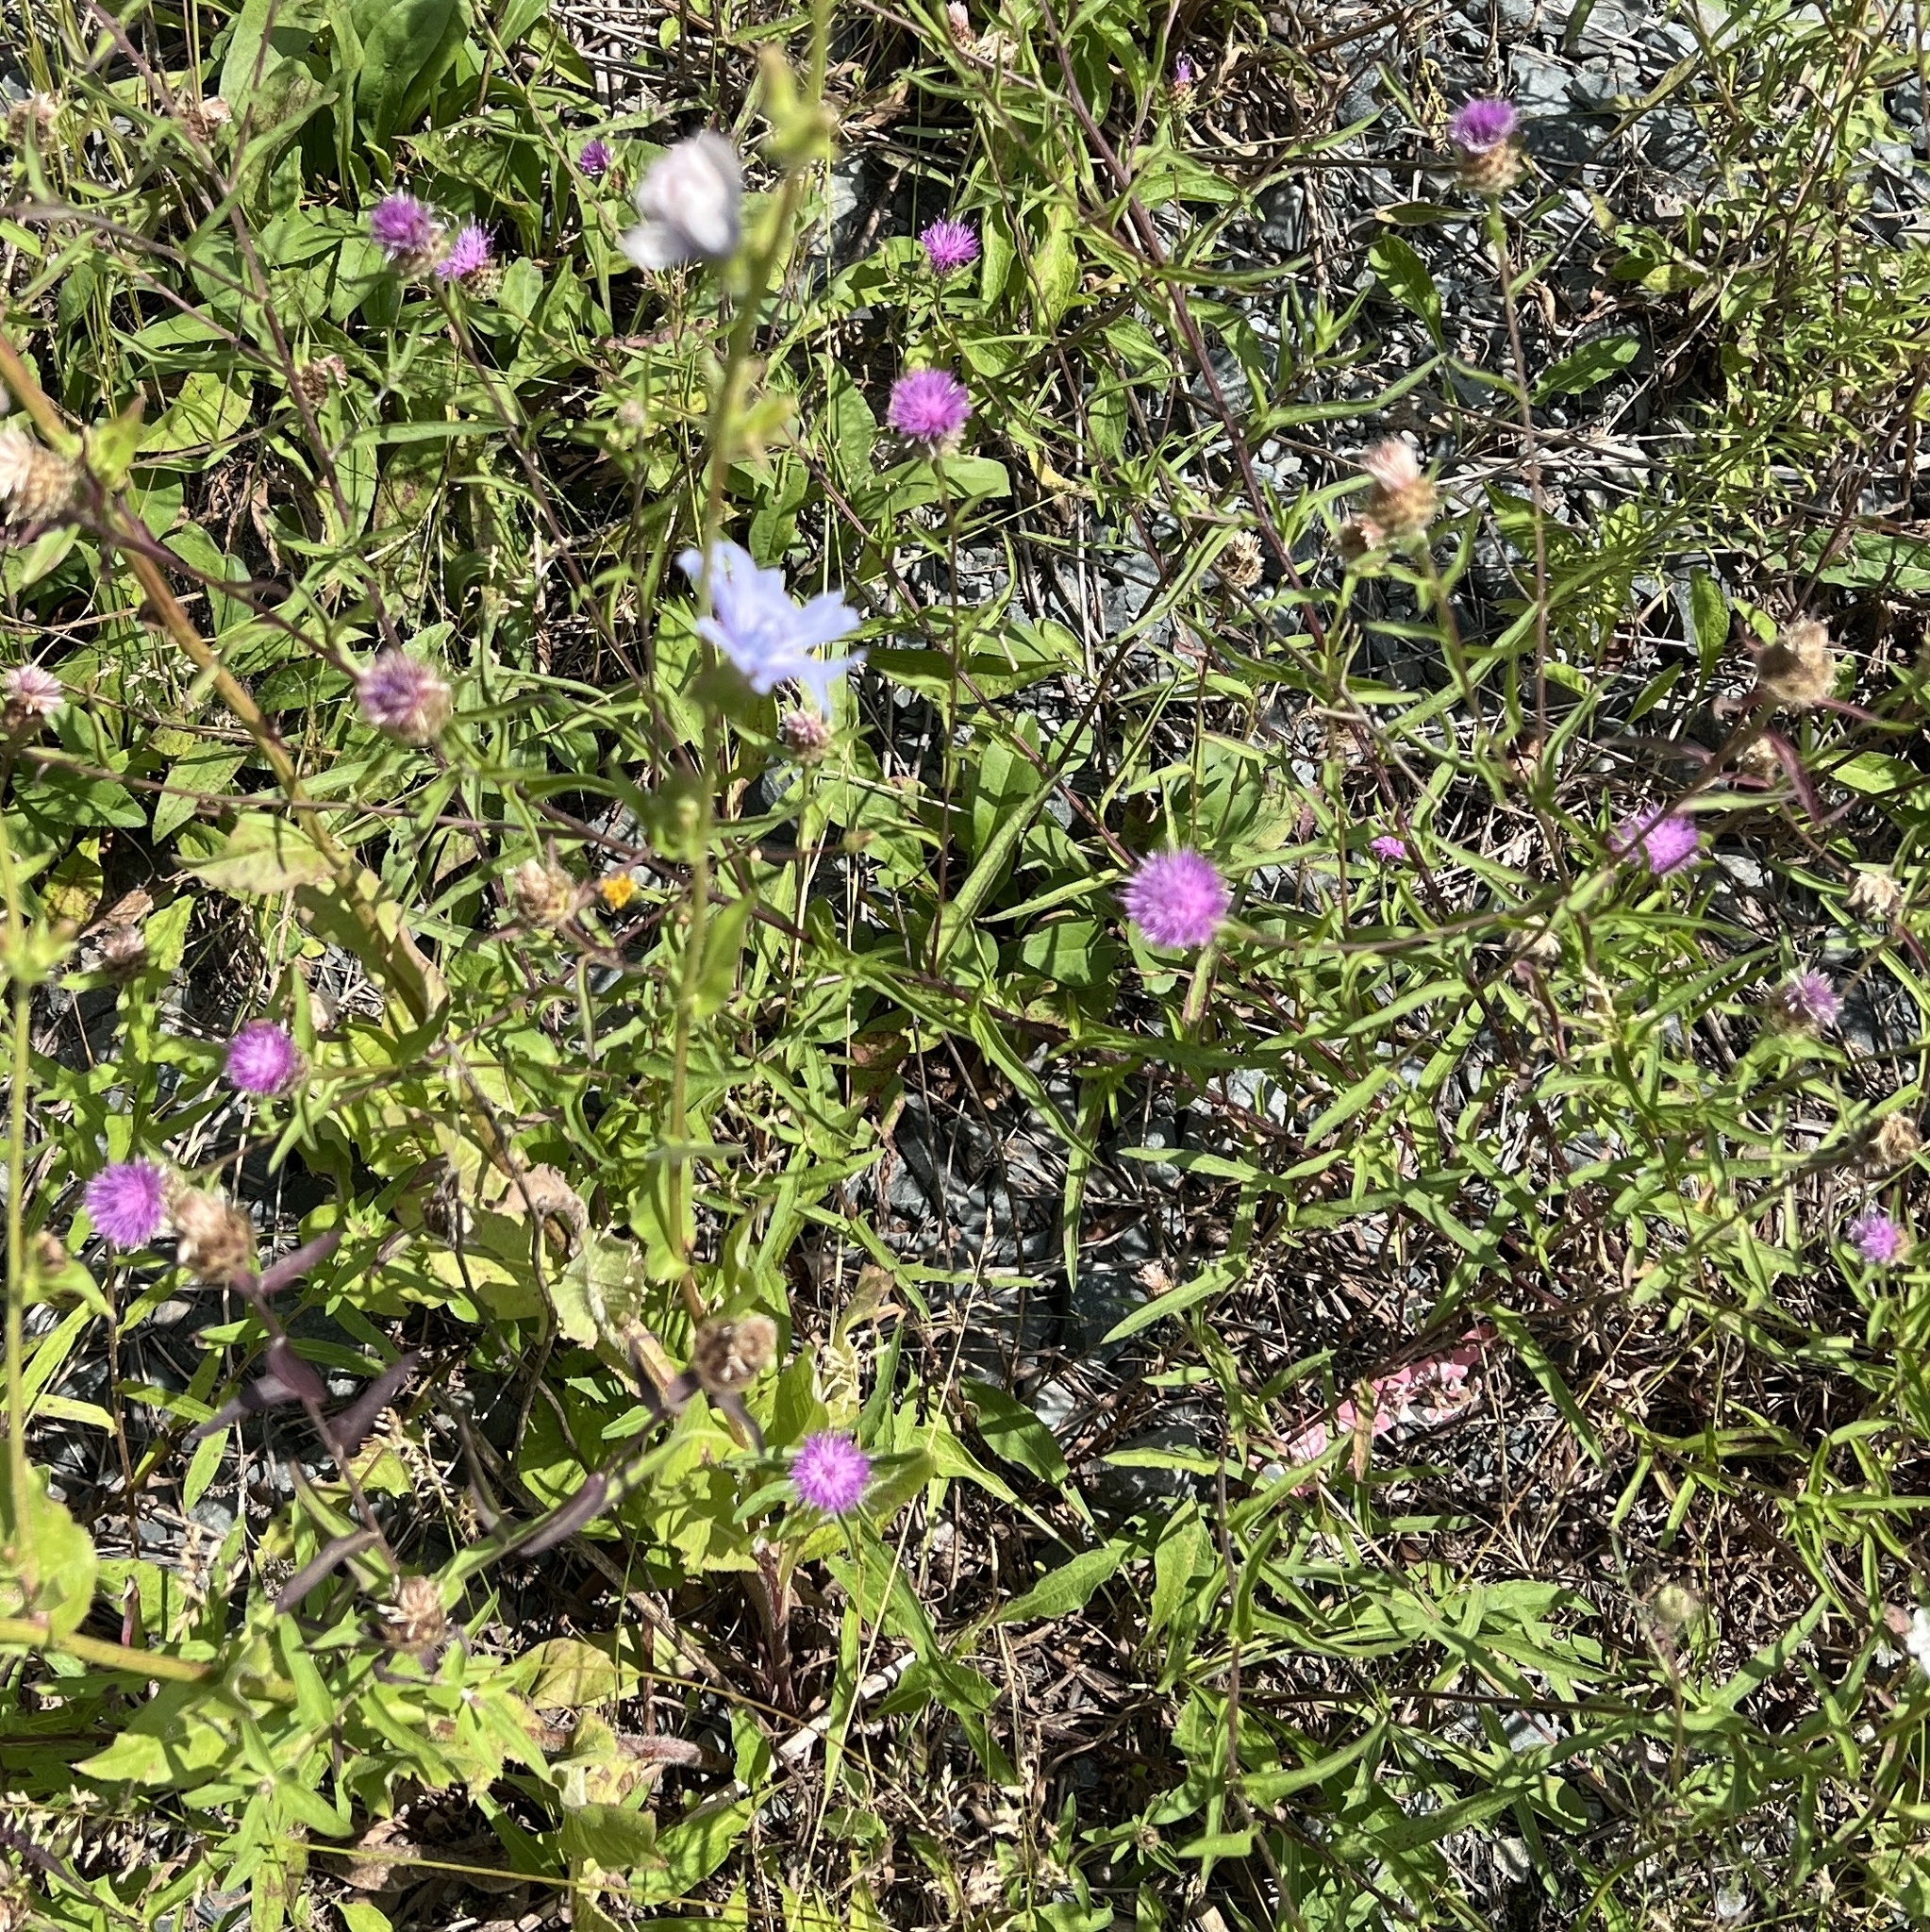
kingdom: Plantae
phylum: Tracheophyta
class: Magnoliopsida
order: Asterales
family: Asteraceae
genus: Cichorium
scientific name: Cichorium intybus
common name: Chicory
